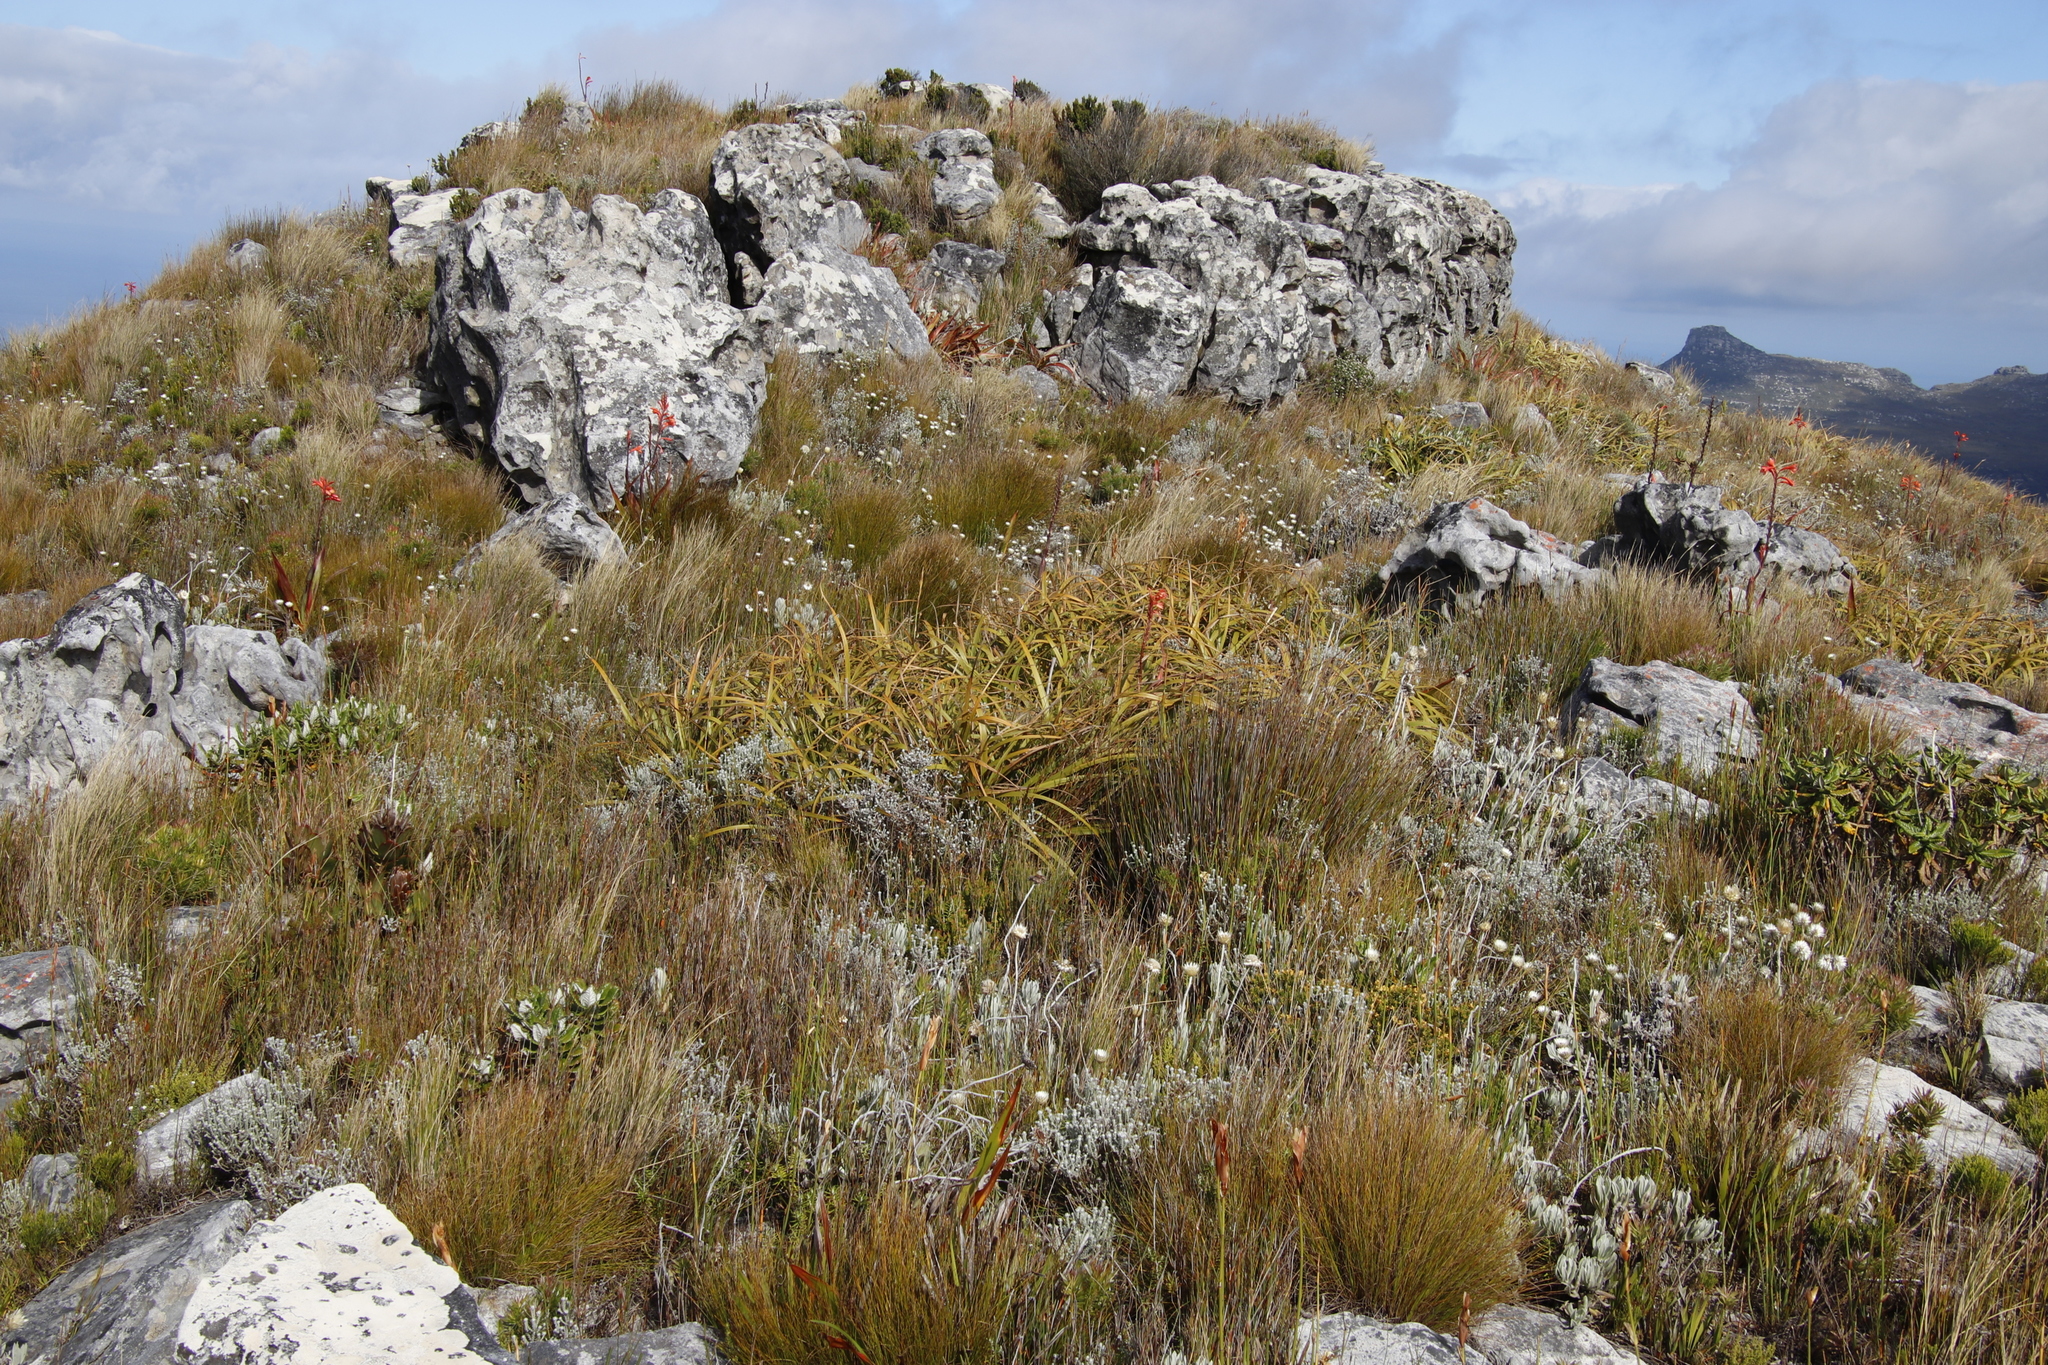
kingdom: Plantae
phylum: Tracheophyta
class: Liliopsida
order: Poales
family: Cyperaceae
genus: Tetraria
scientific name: Tetraria thermalis
